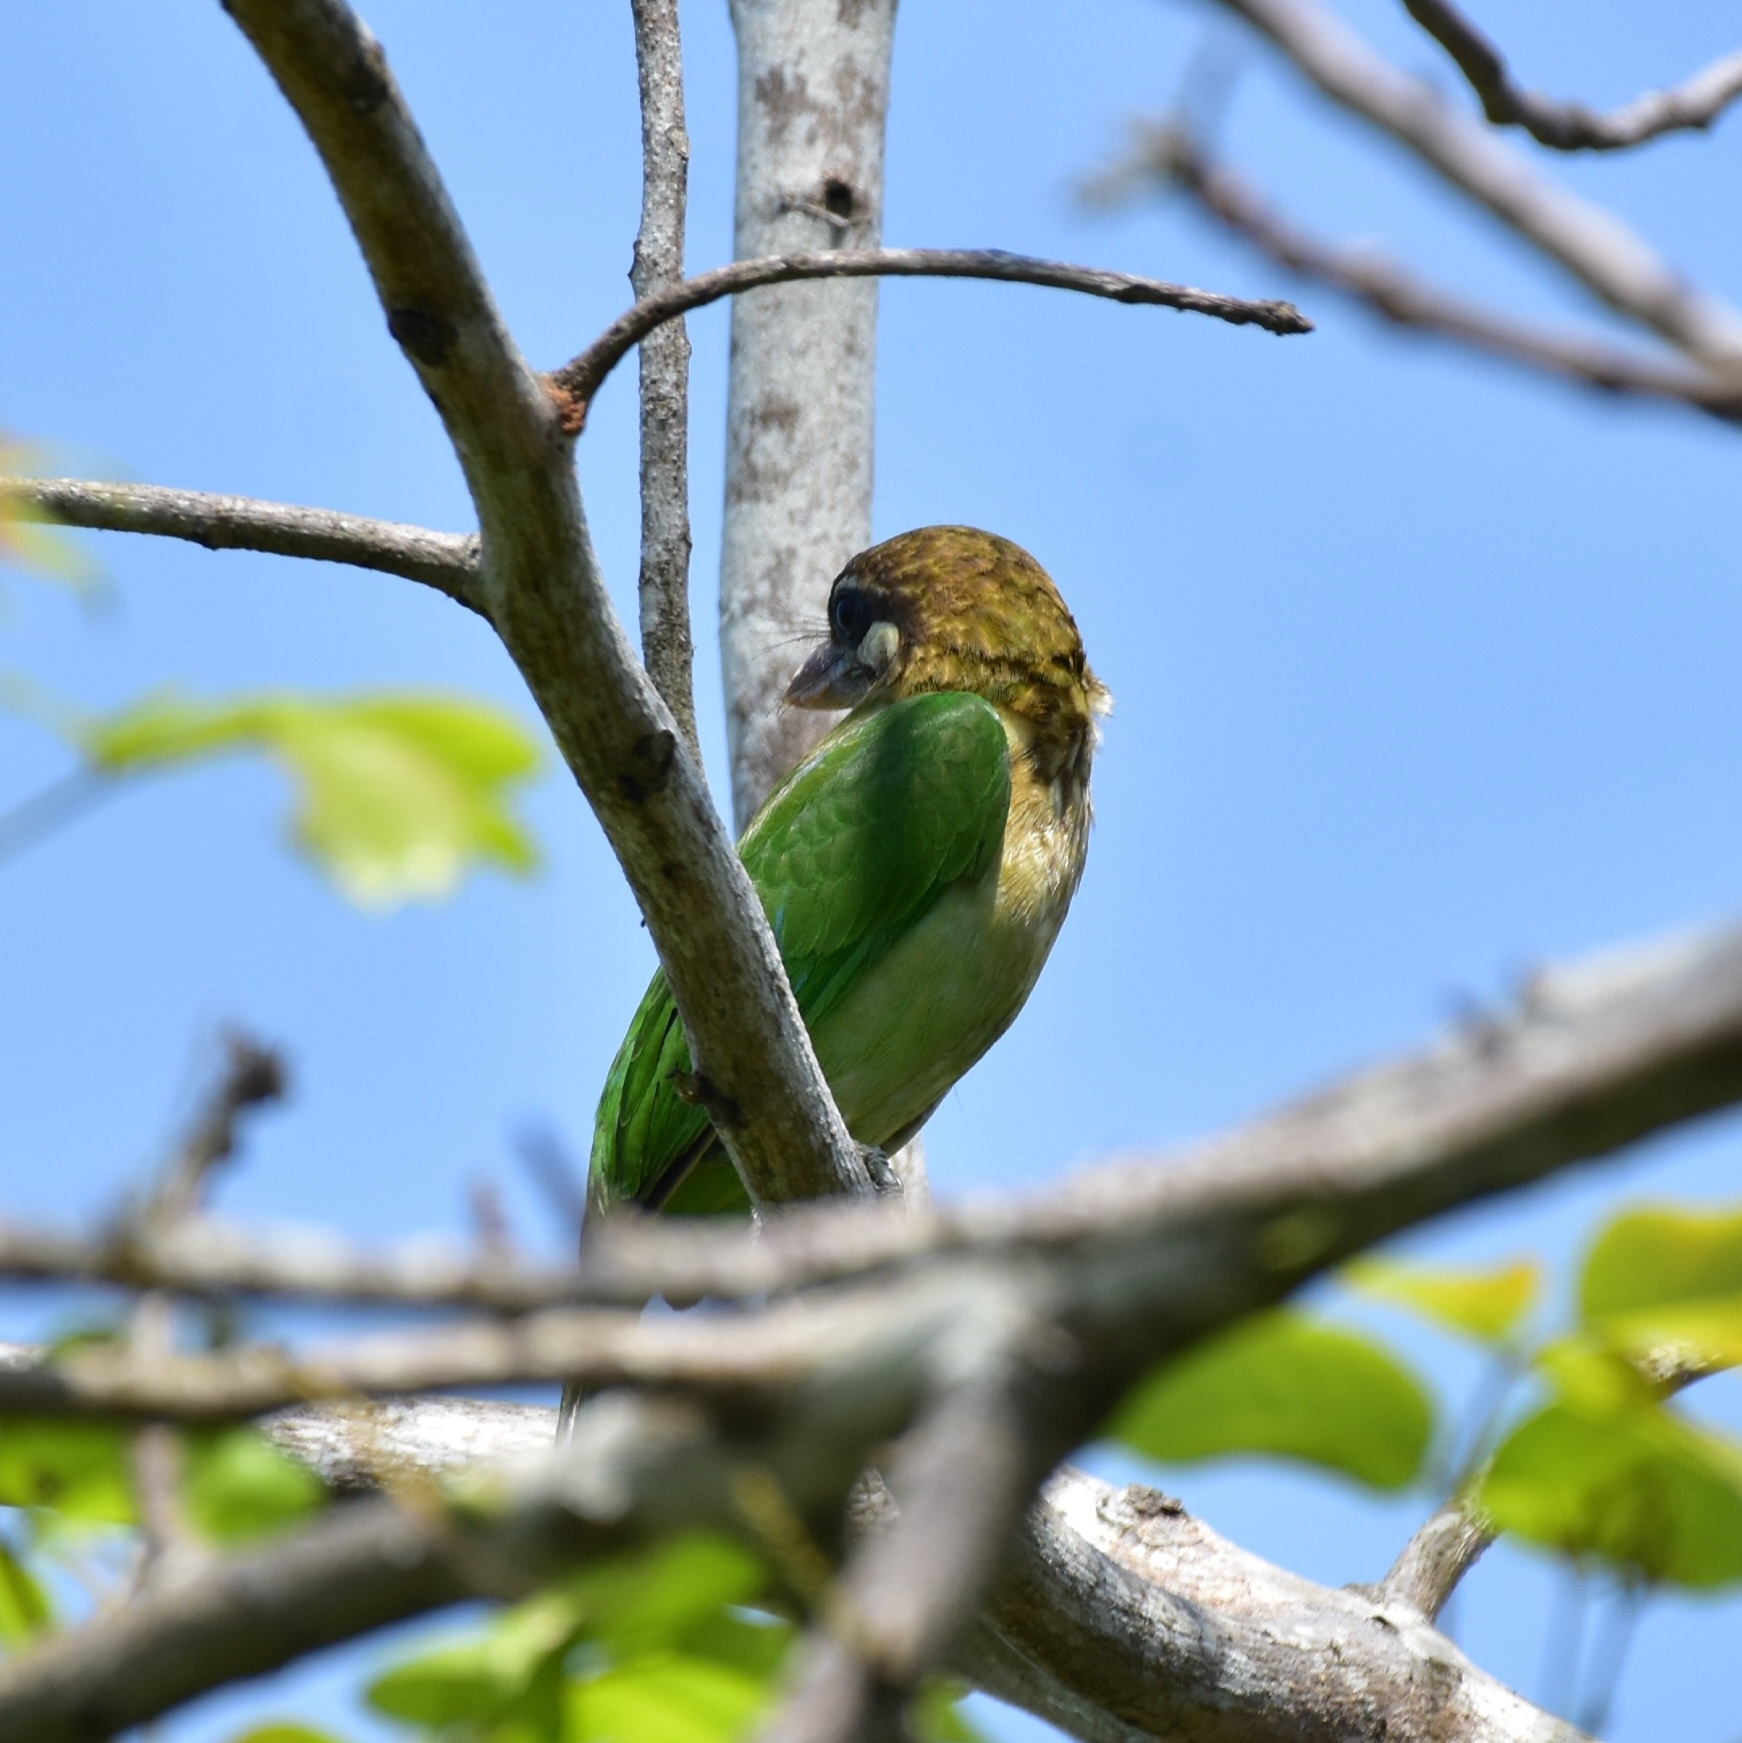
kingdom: Animalia
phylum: Chordata
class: Aves
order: Piciformes
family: Megalaimidae
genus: Psilopogon
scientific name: Psilopogon viridis
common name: White-cheeked barbet
